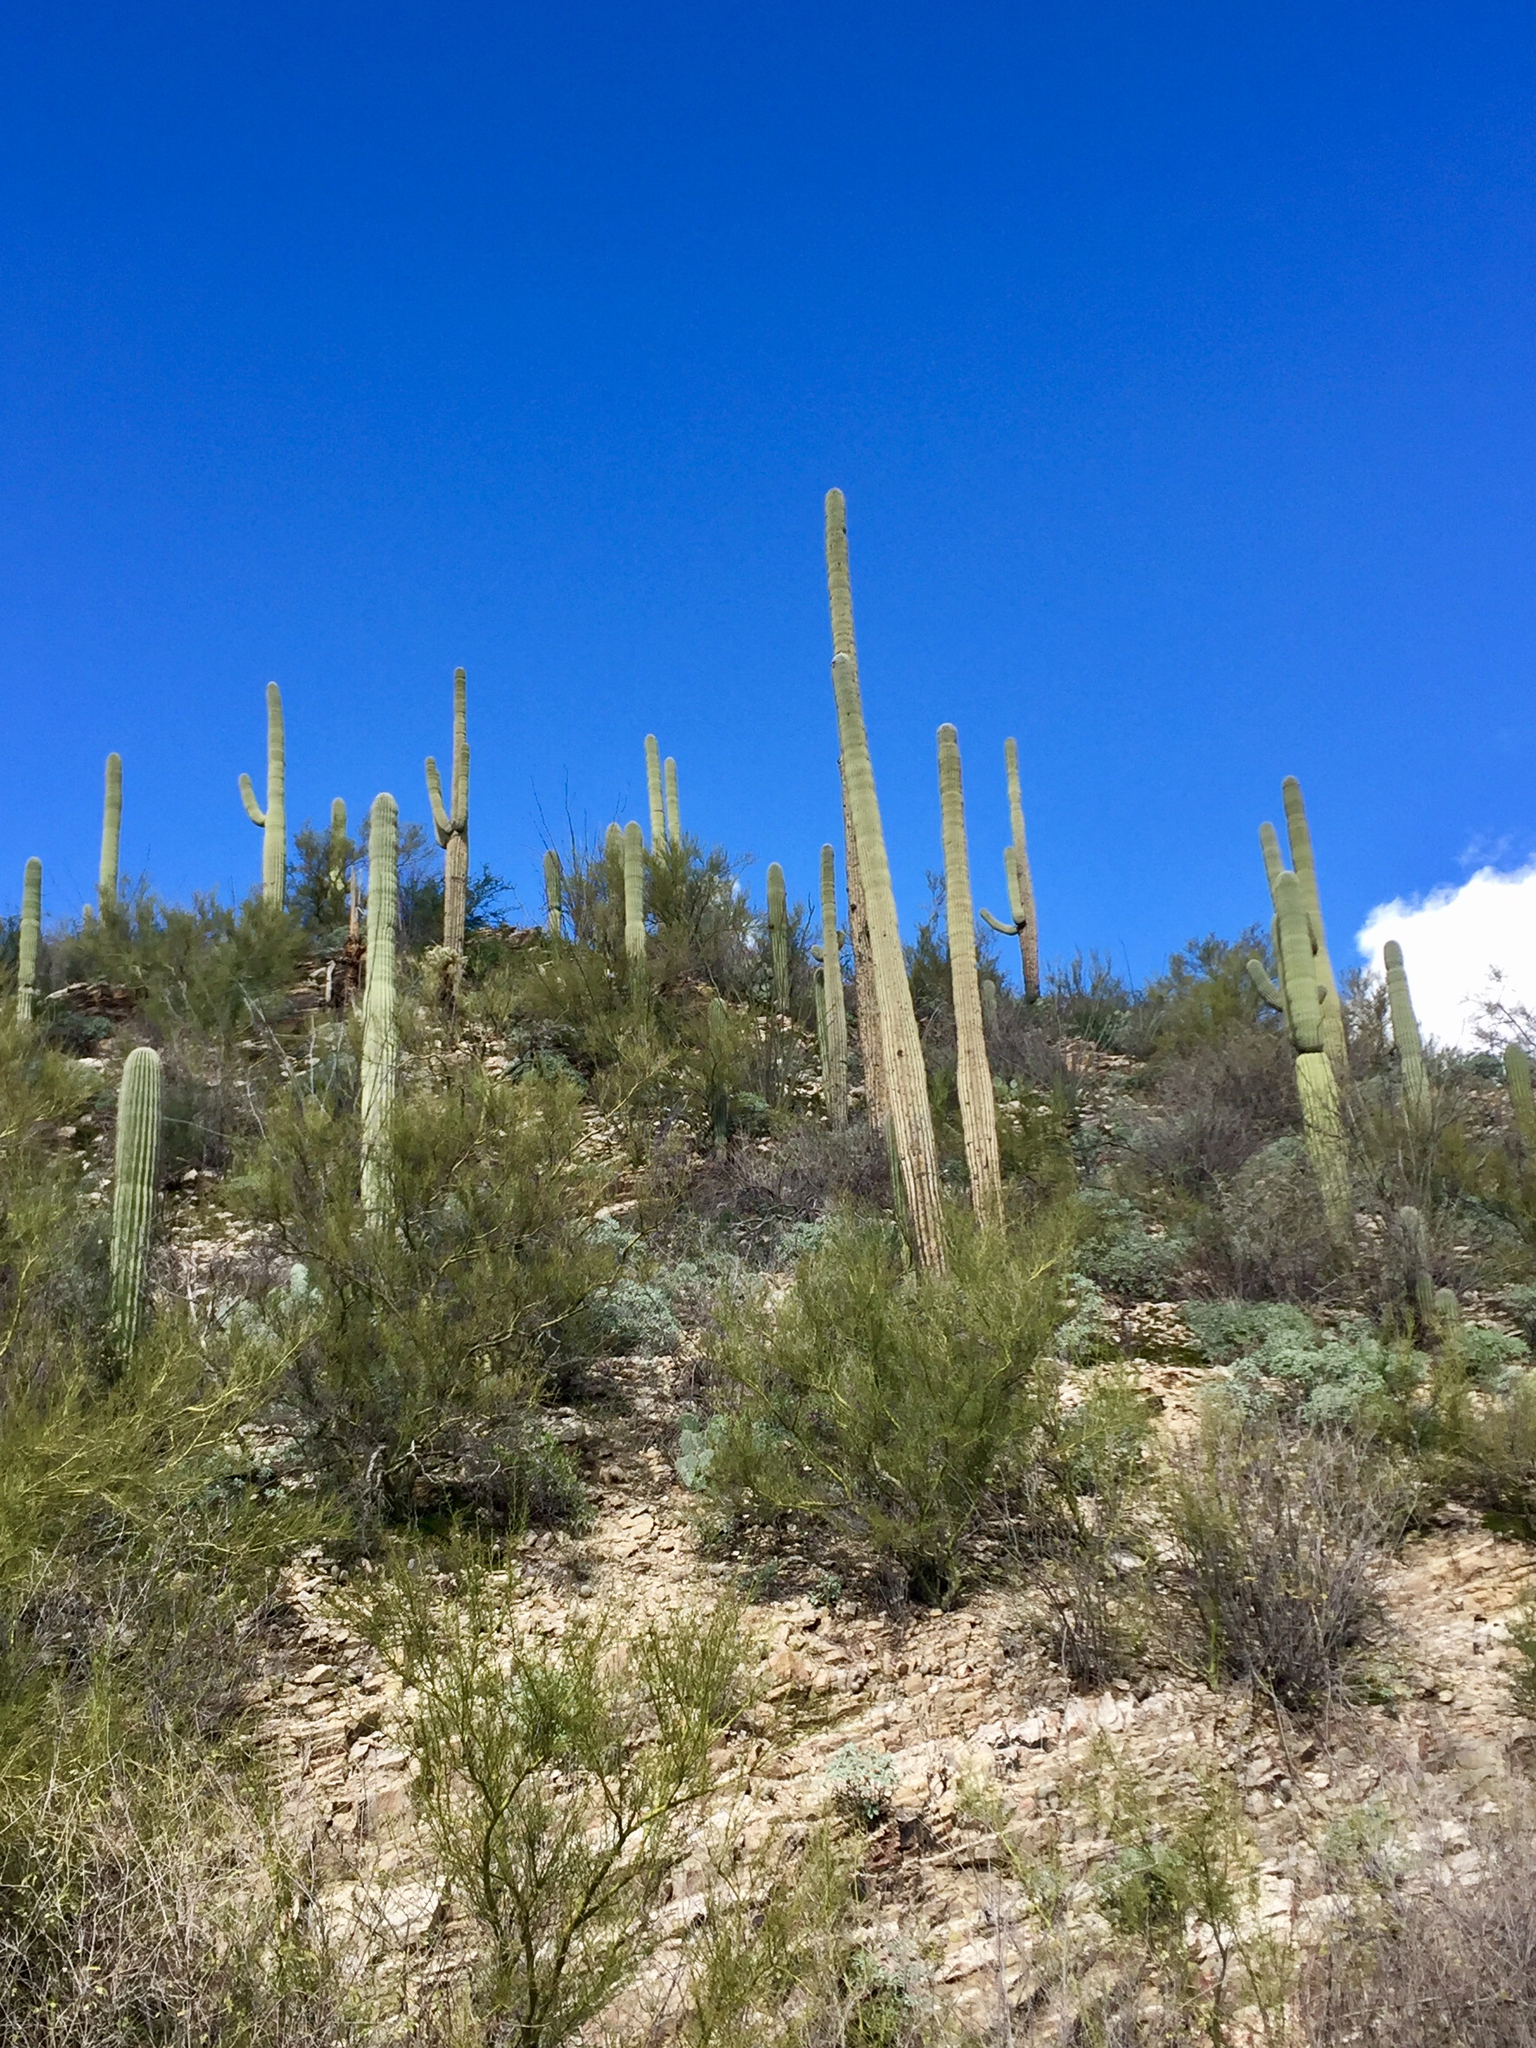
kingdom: Plantae
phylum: Tracheophyta
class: Magnoliopsida
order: Caryophyllales
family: Cactaceae
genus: Carnegiea
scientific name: Carnegiea gigantea
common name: Saguaro
